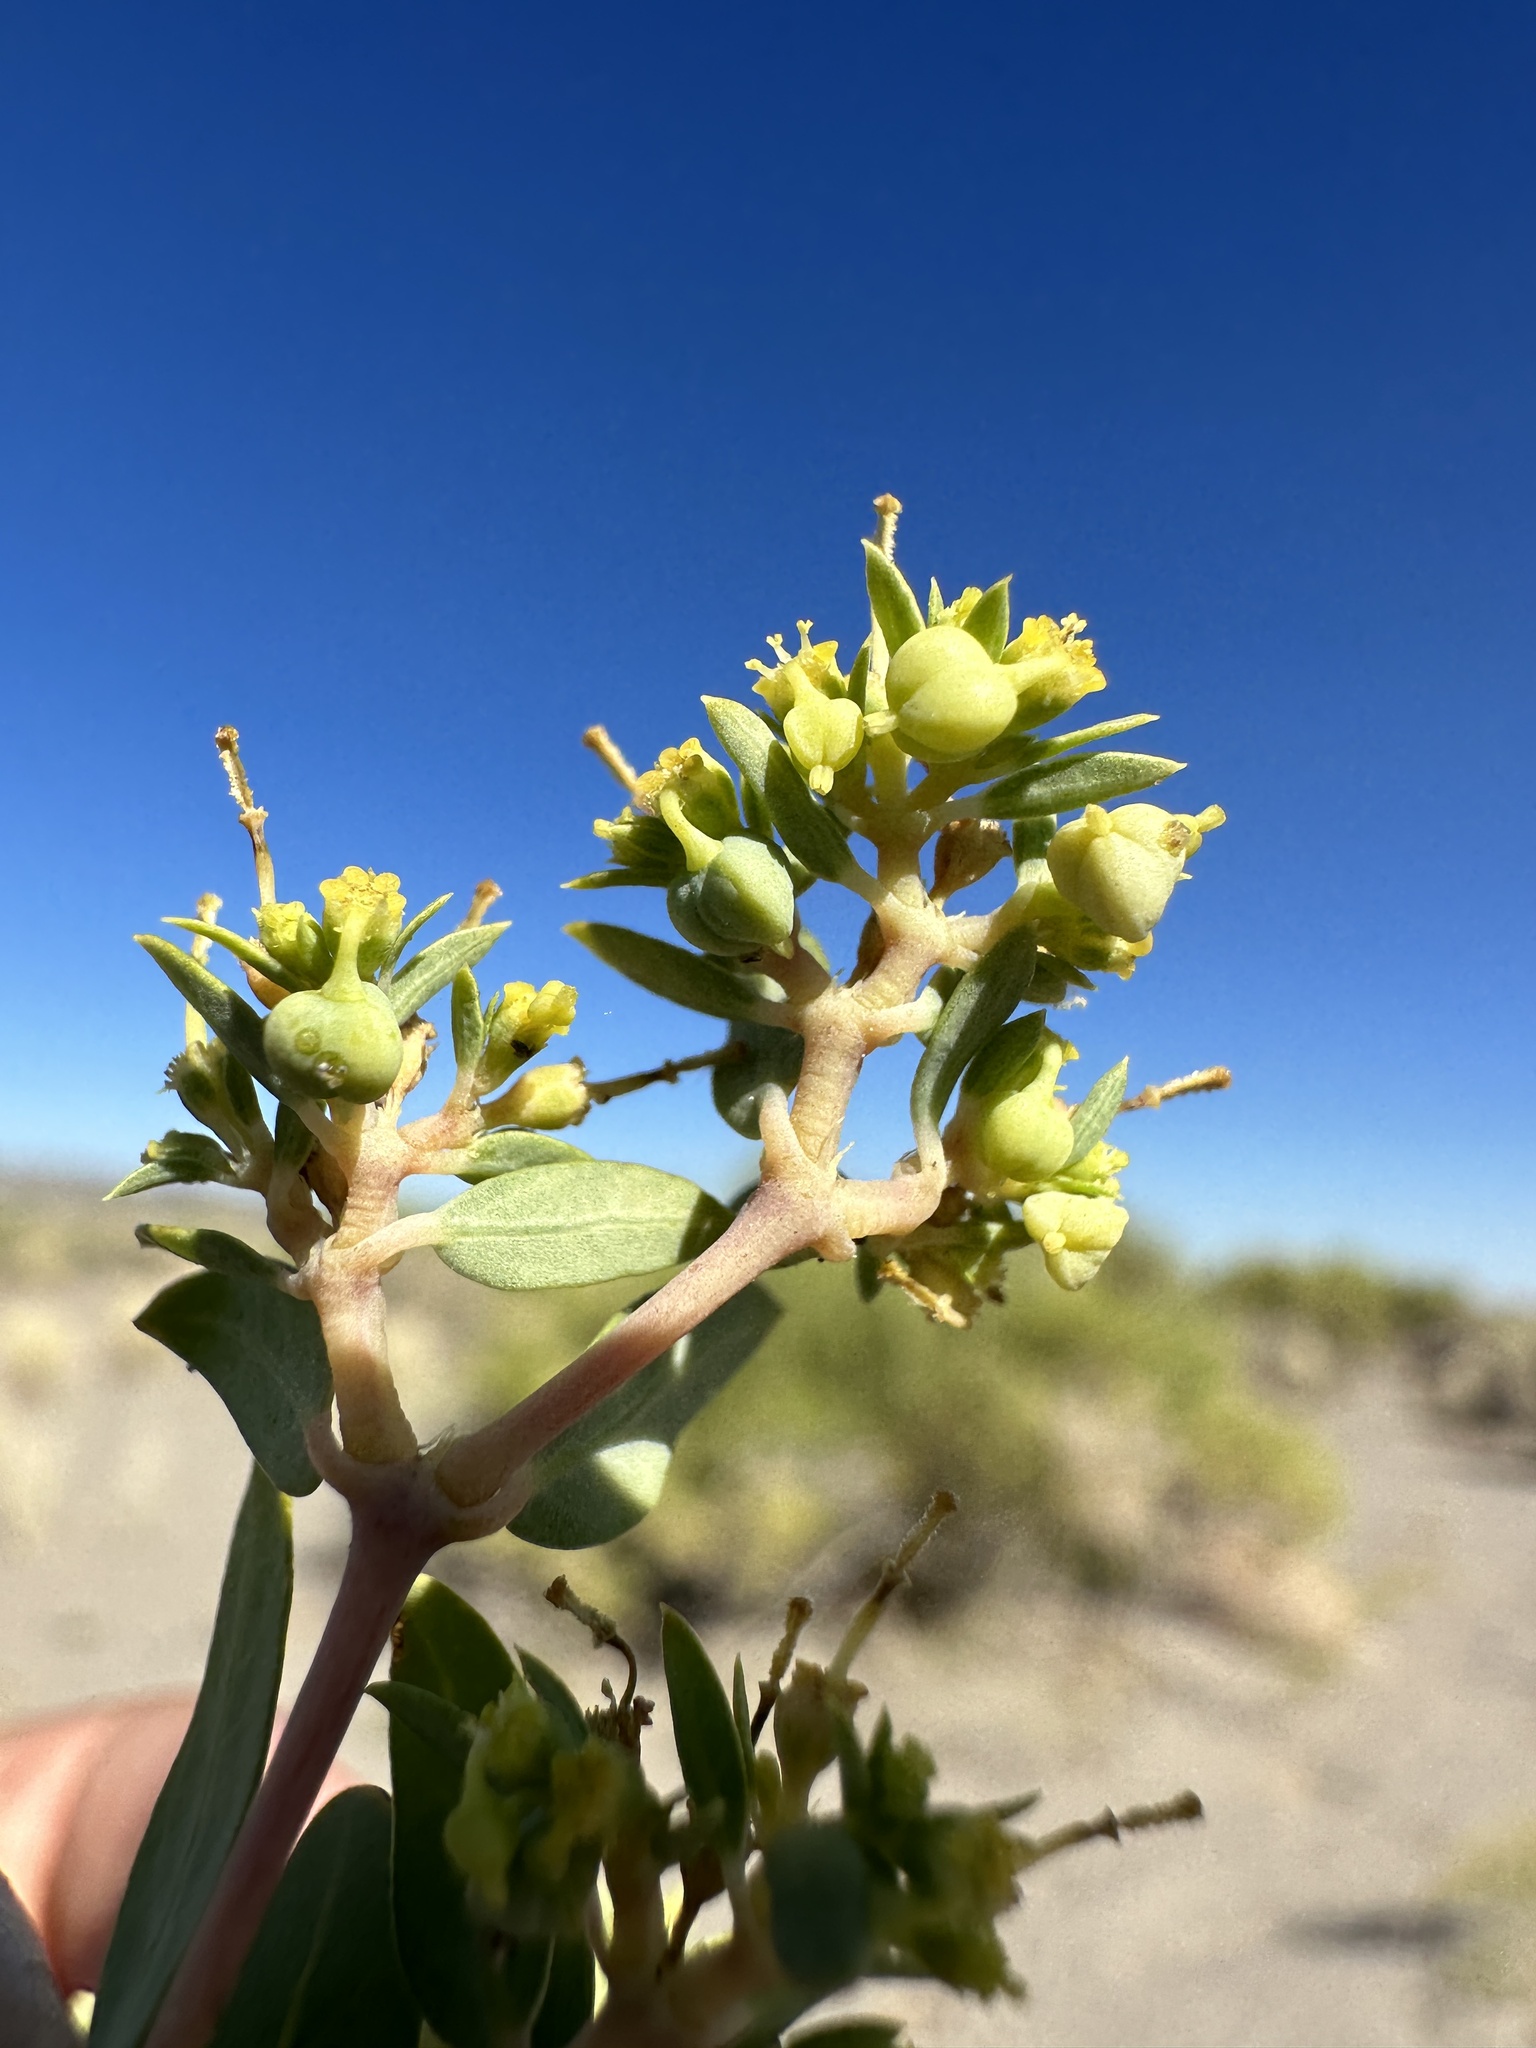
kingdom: Plantae
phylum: Tracheophyta
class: Magnoliopsida
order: Malpighiales
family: Euphorbiaceae
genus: Euphorbia
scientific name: Euphorbia ocellata
